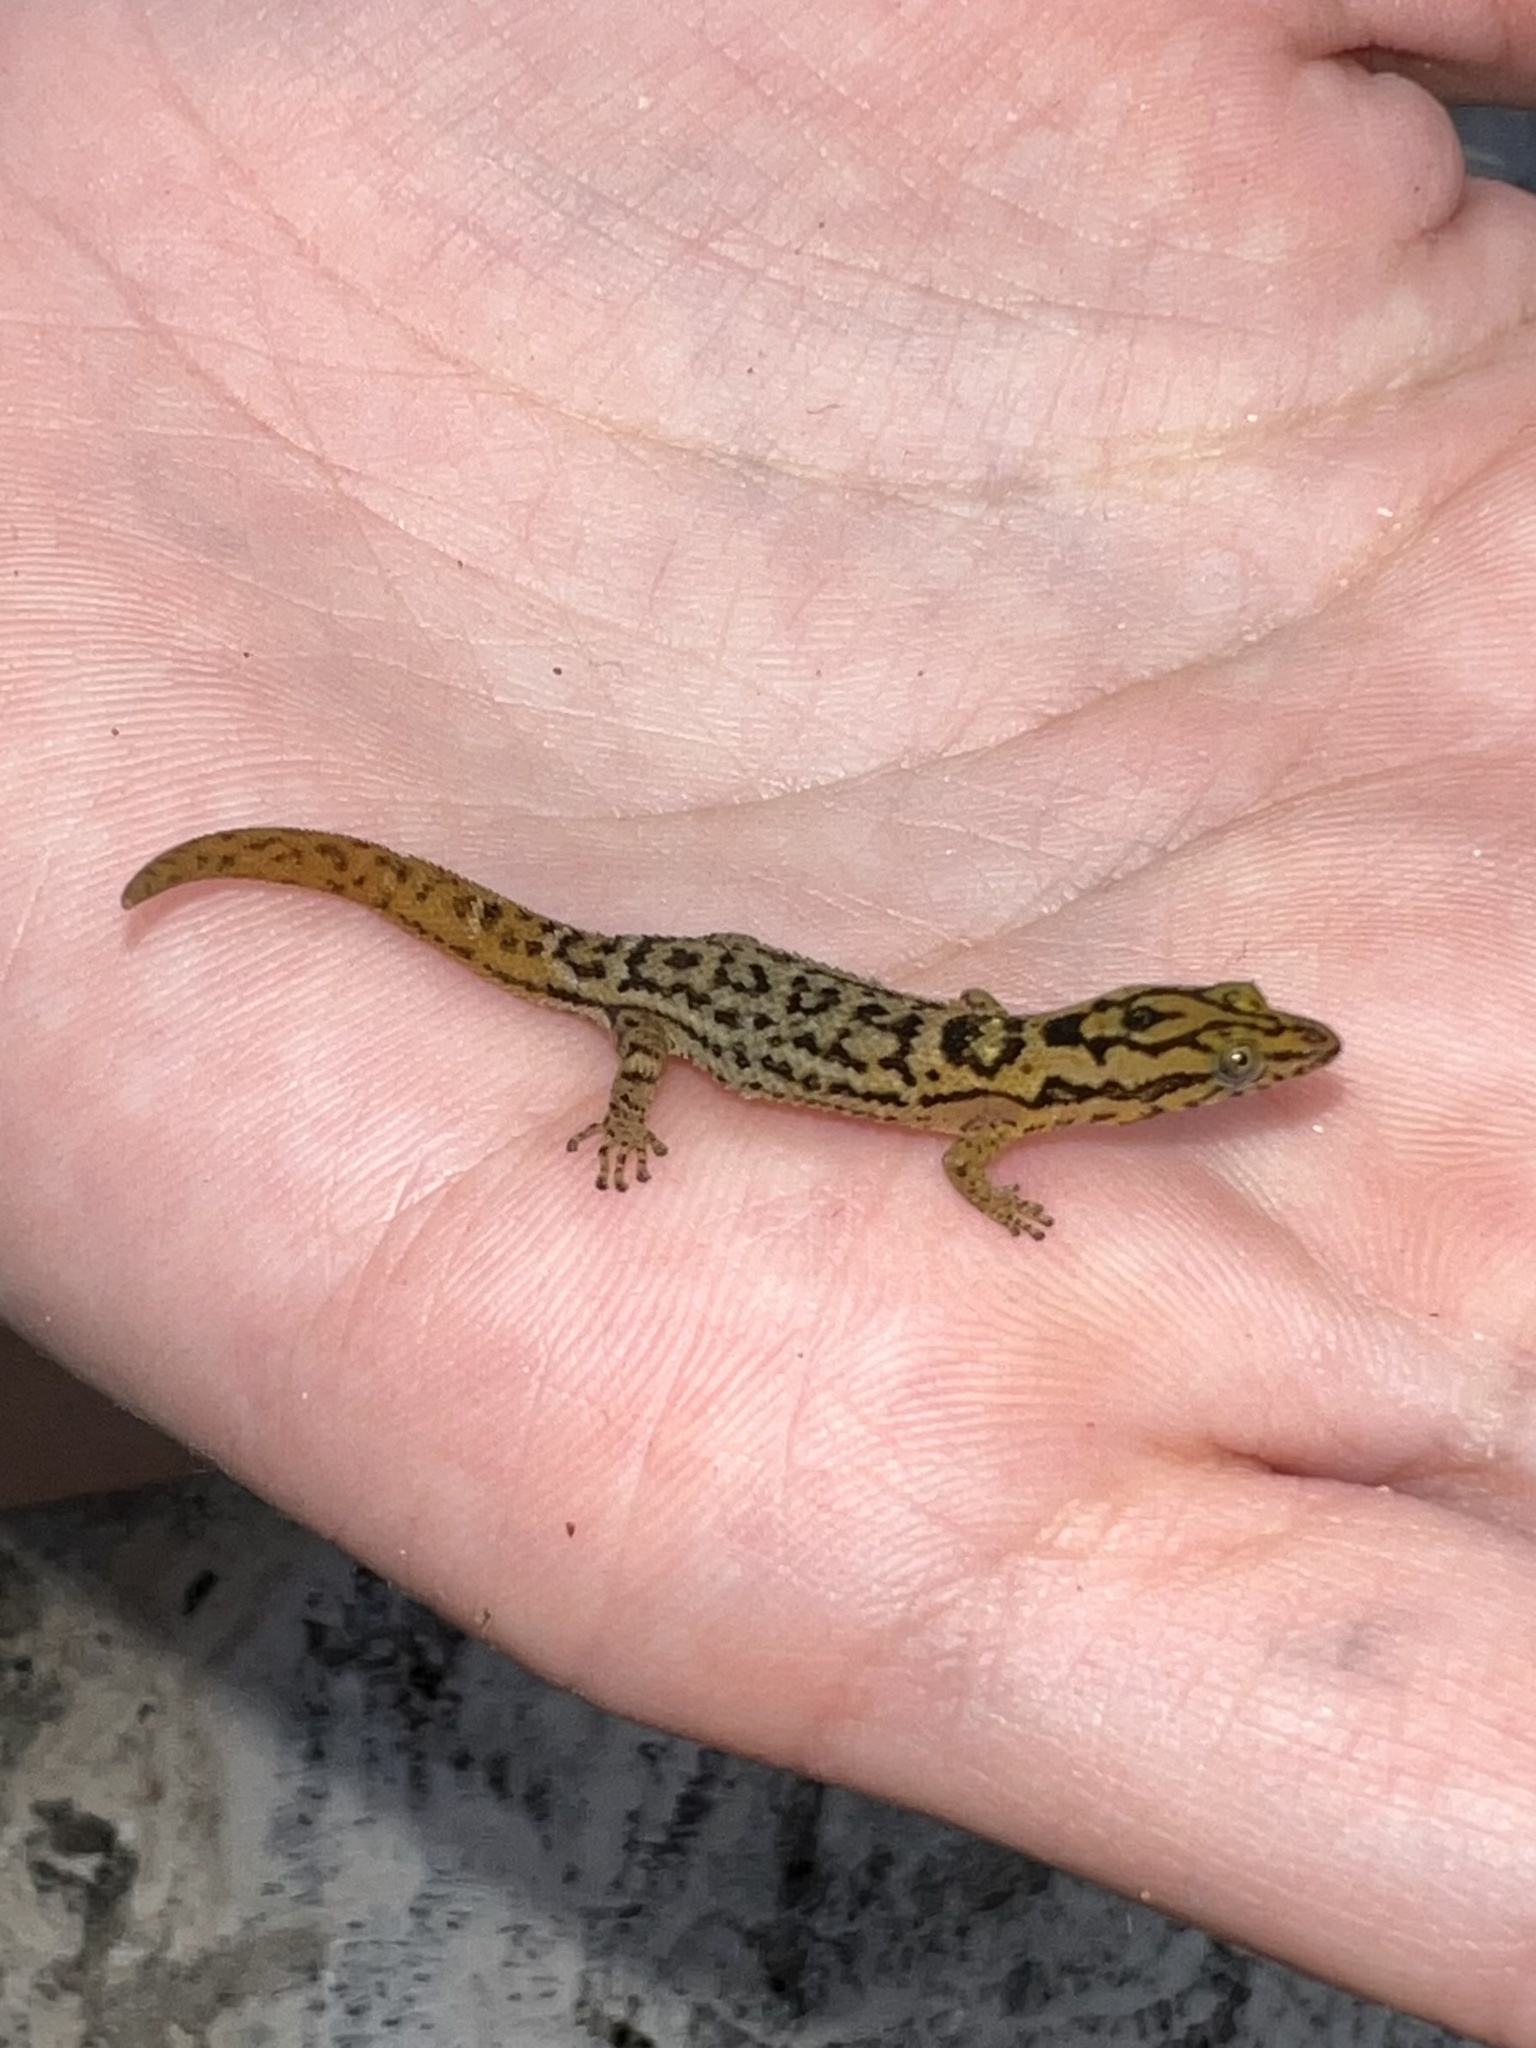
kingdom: Animalia
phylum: Chordata
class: Squamata
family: Sphaerodactylidae
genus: Sphaerodactylus
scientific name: Sphaerodactylus grandisquamis
